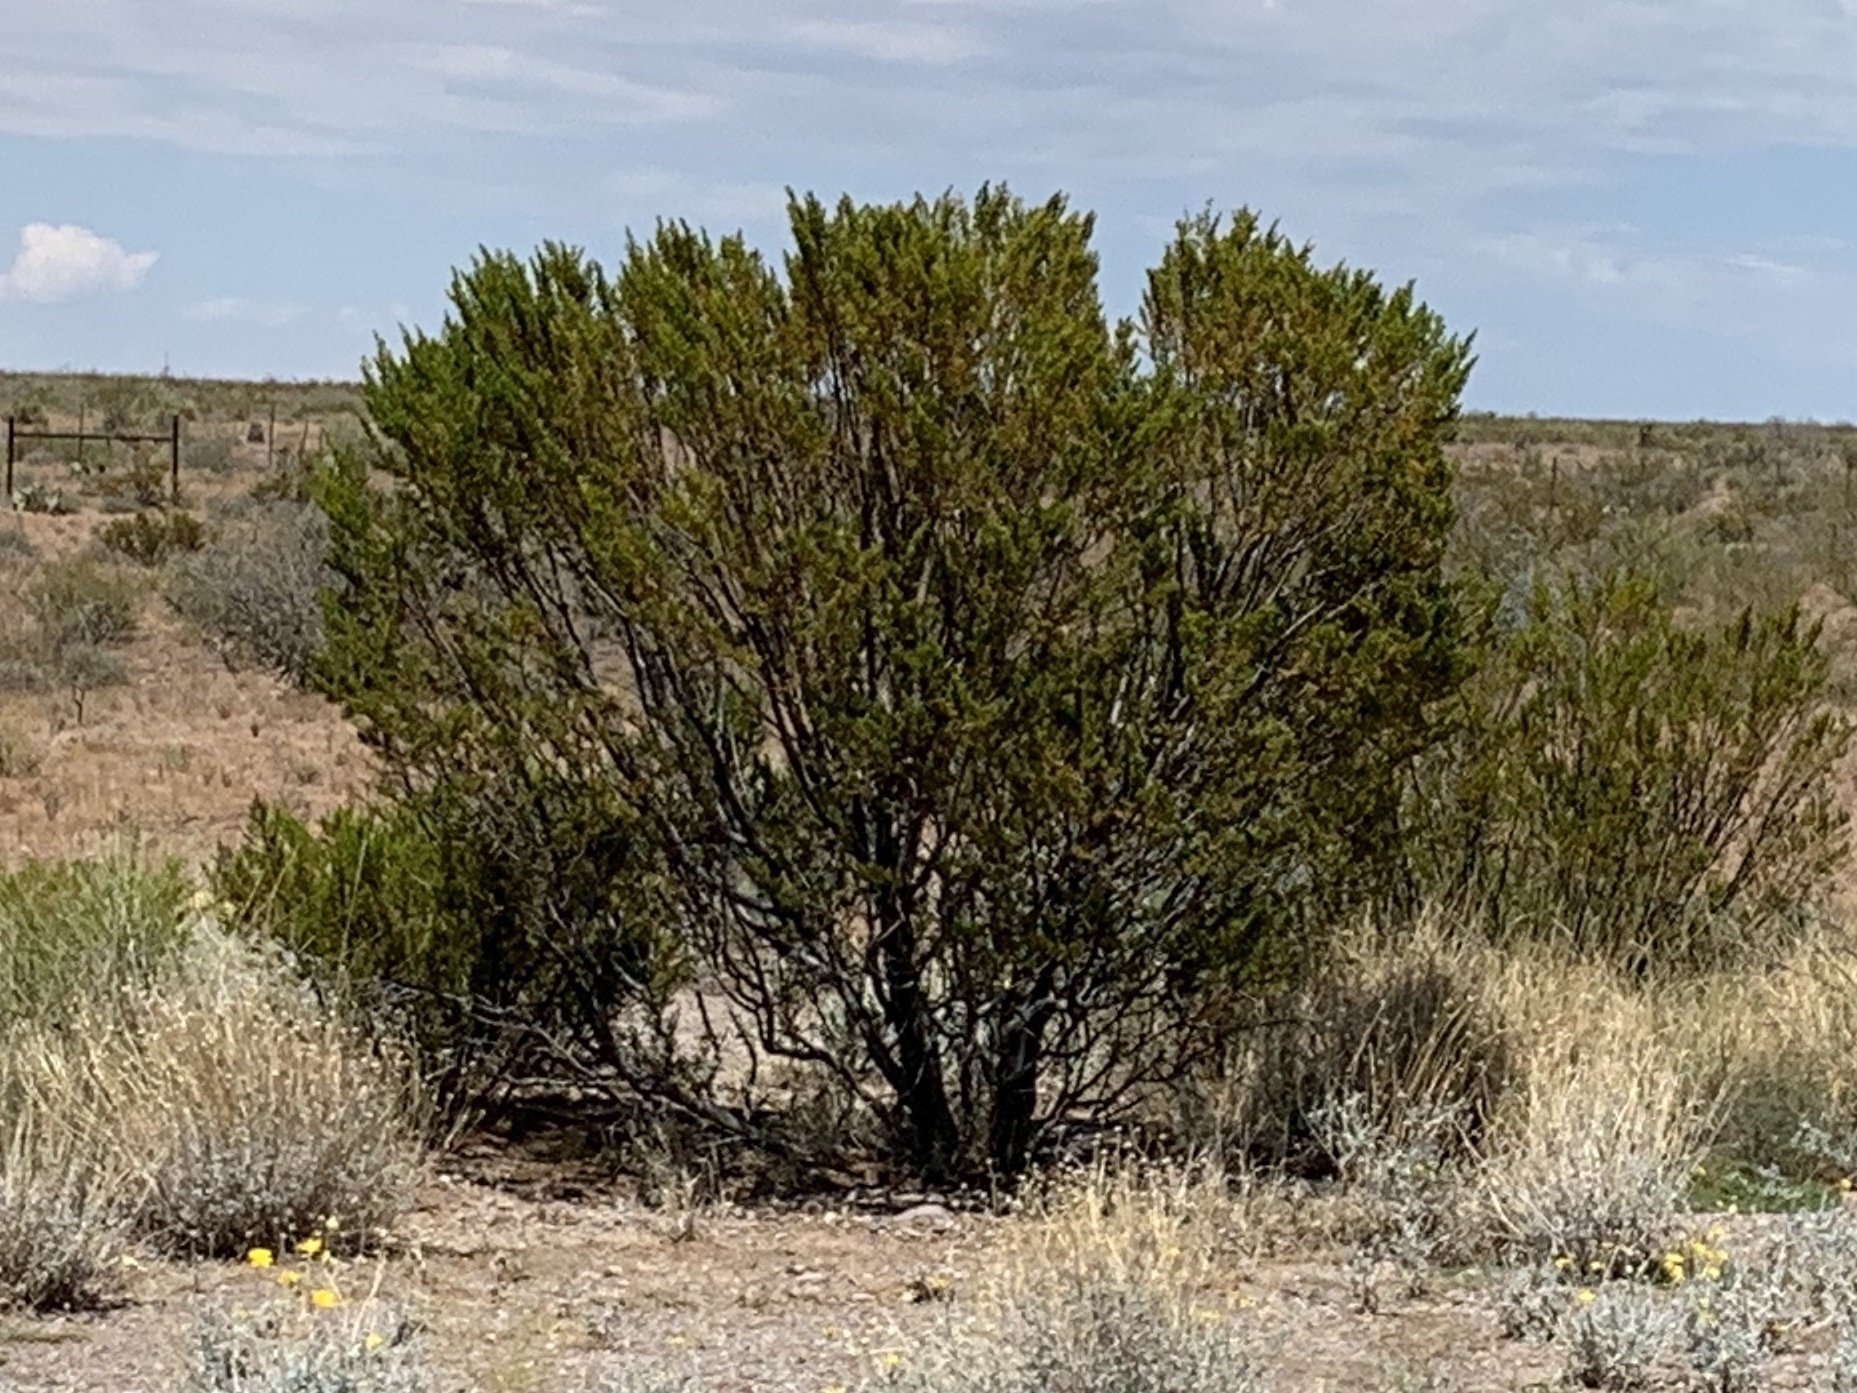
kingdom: Plantae
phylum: Tracheophyta
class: Magnoliopsida
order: Zygophyllales
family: Zygophyllaceae
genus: Larrea
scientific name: Larrea tridentata
